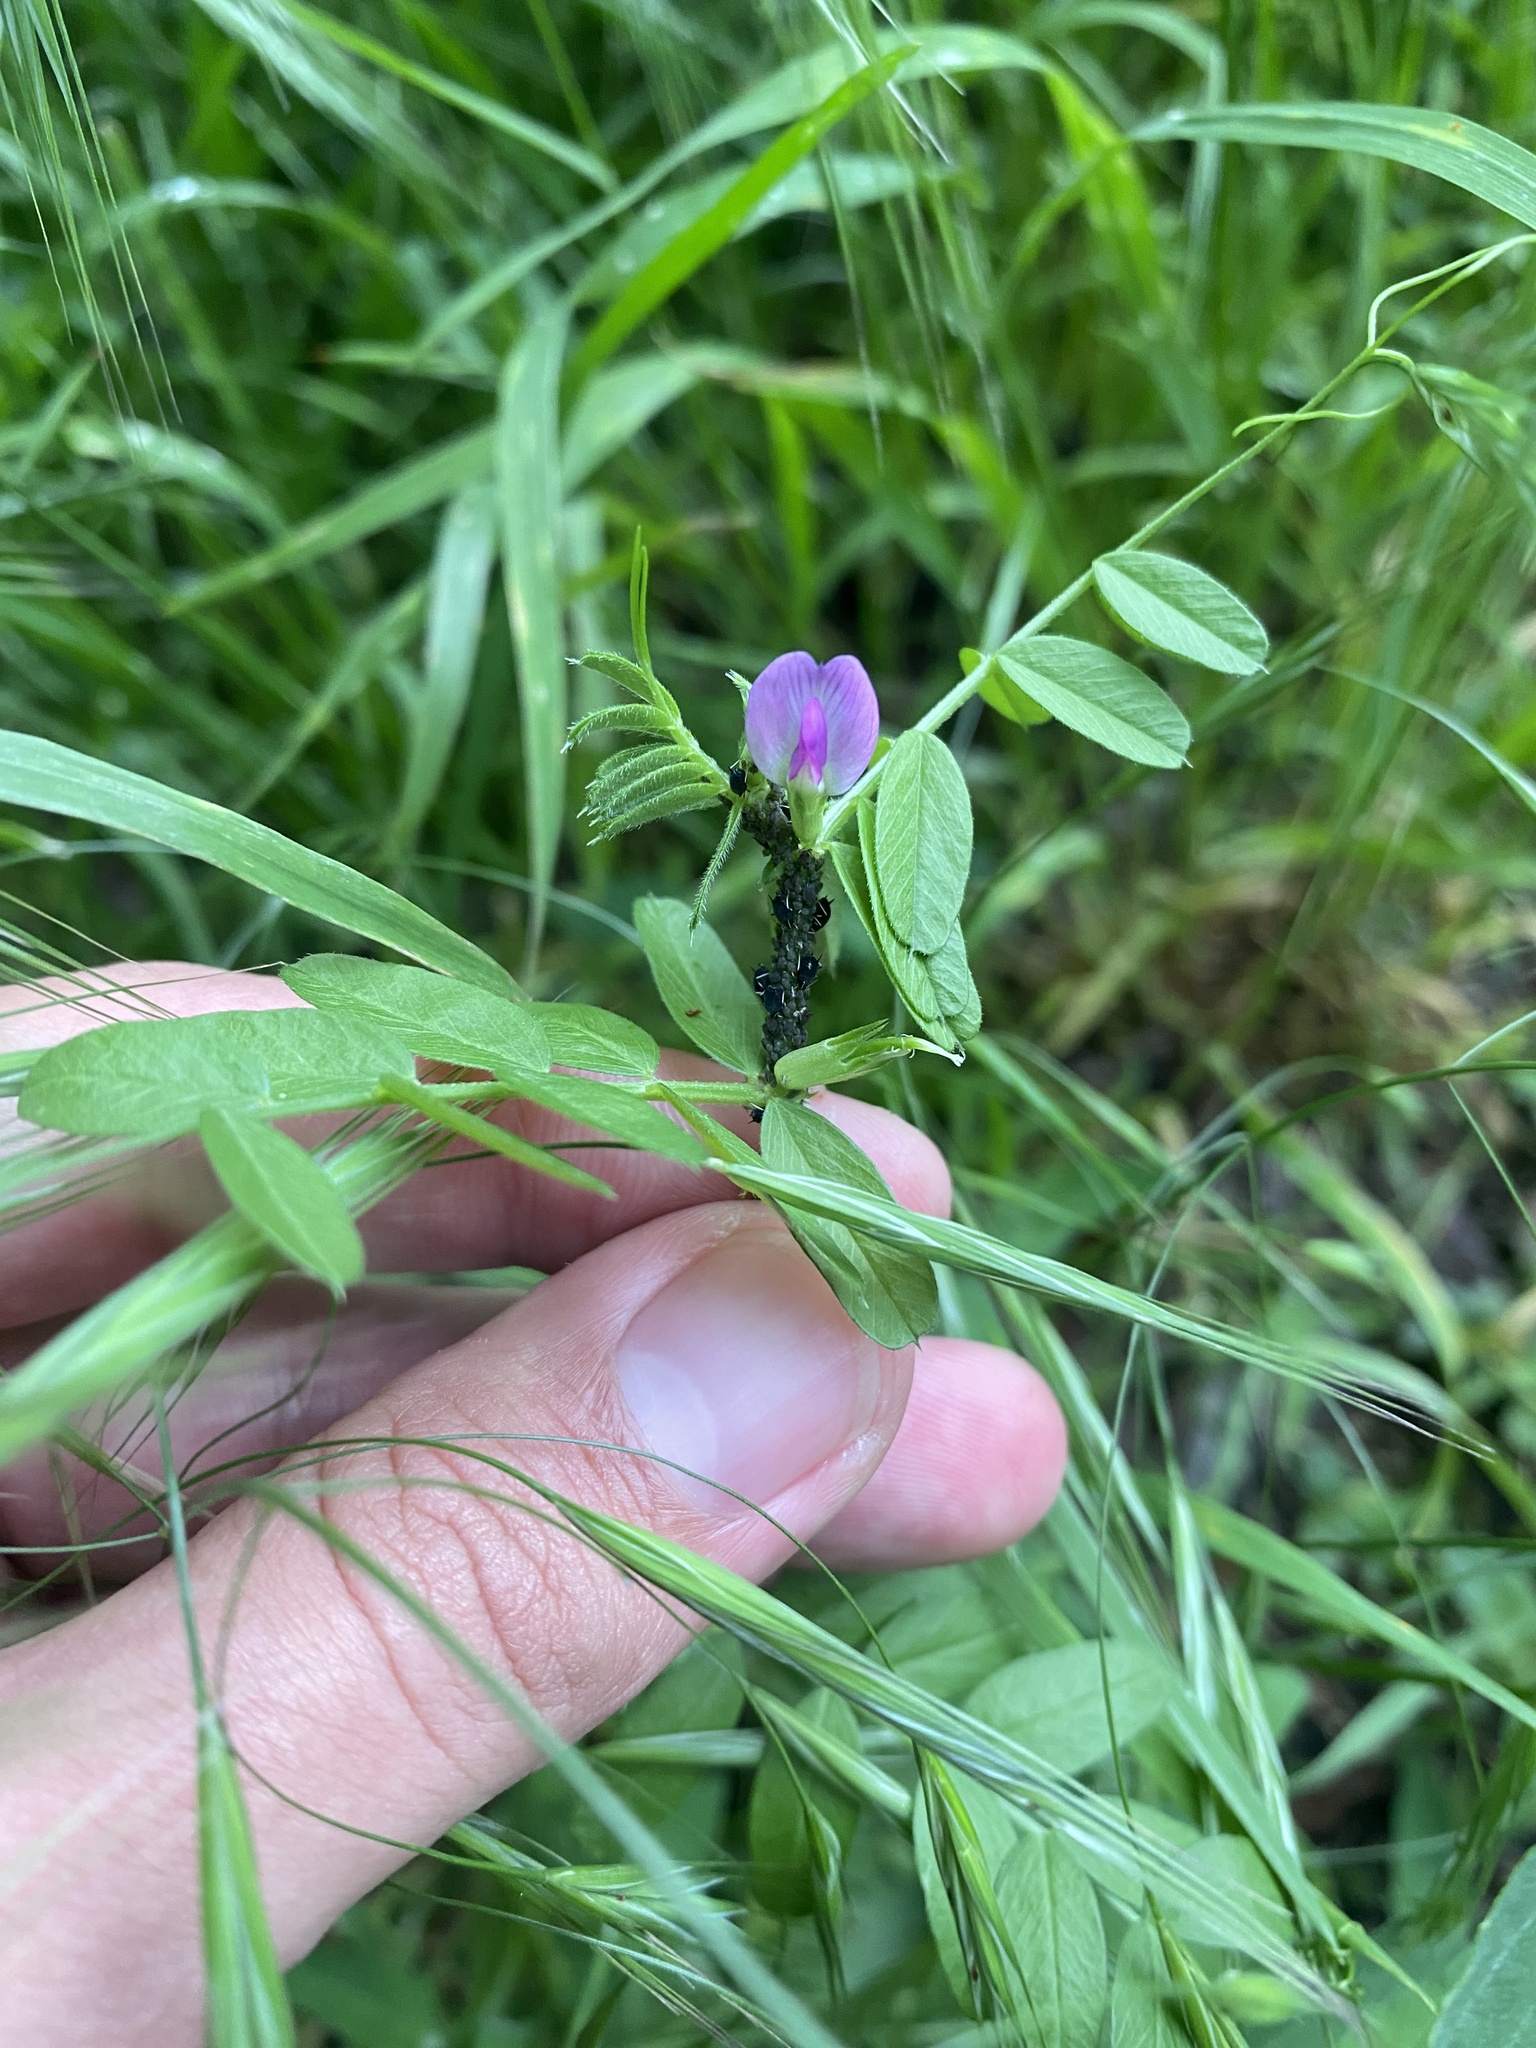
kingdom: Plantae
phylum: Tracheophyta
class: Magnoliopsida
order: Fabales
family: Fabaceae
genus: Vicia
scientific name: Vicia sepium
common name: Bush vetch
